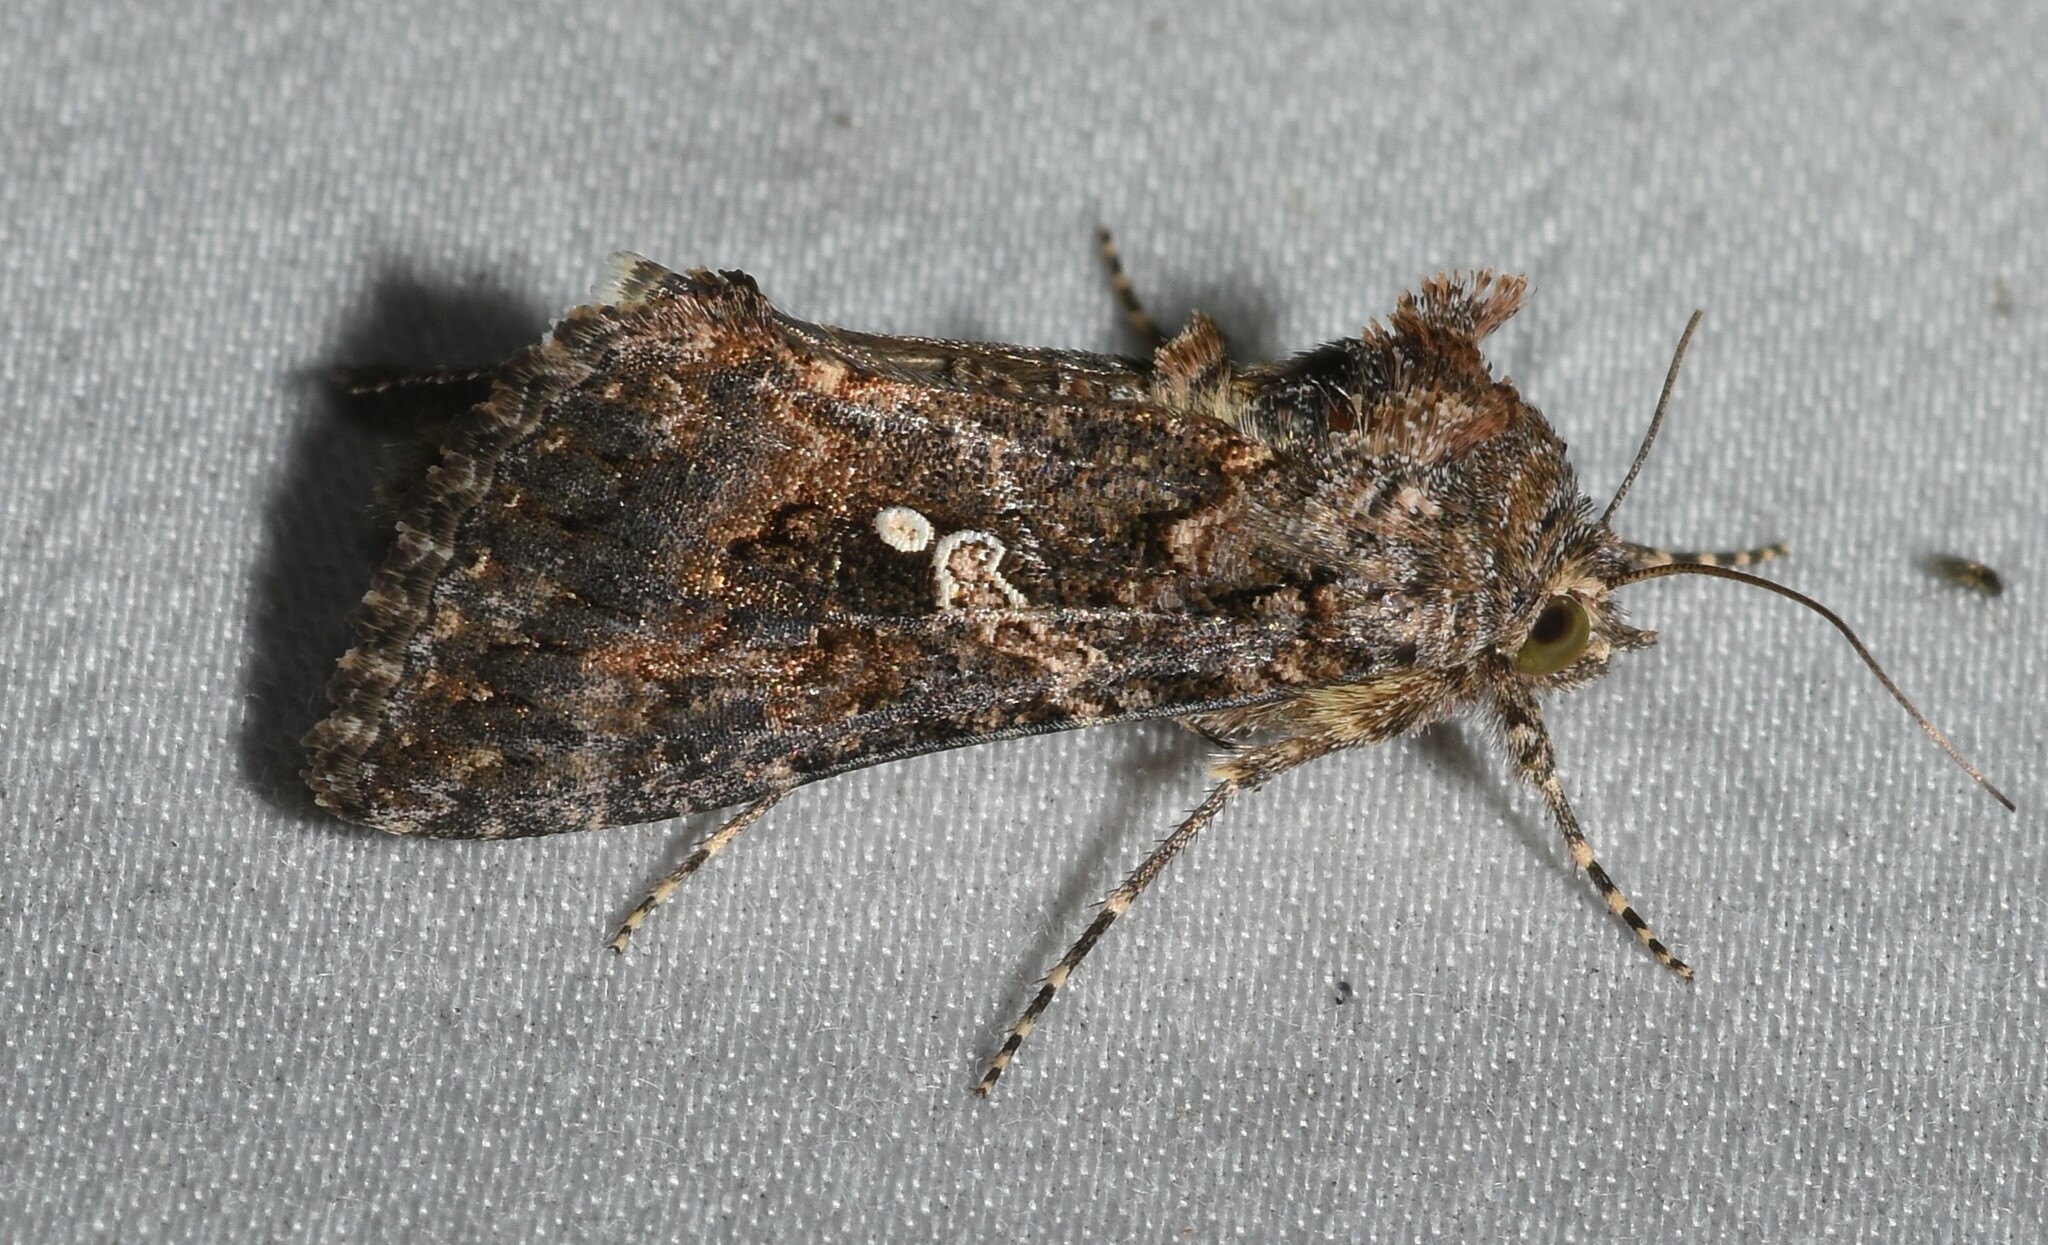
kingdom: Animalia
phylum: Arthropoda
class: Insecta
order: Lepidoptera
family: Noctuidae
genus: Trichoplusia
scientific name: Trichoplusia ni
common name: Ni moth
